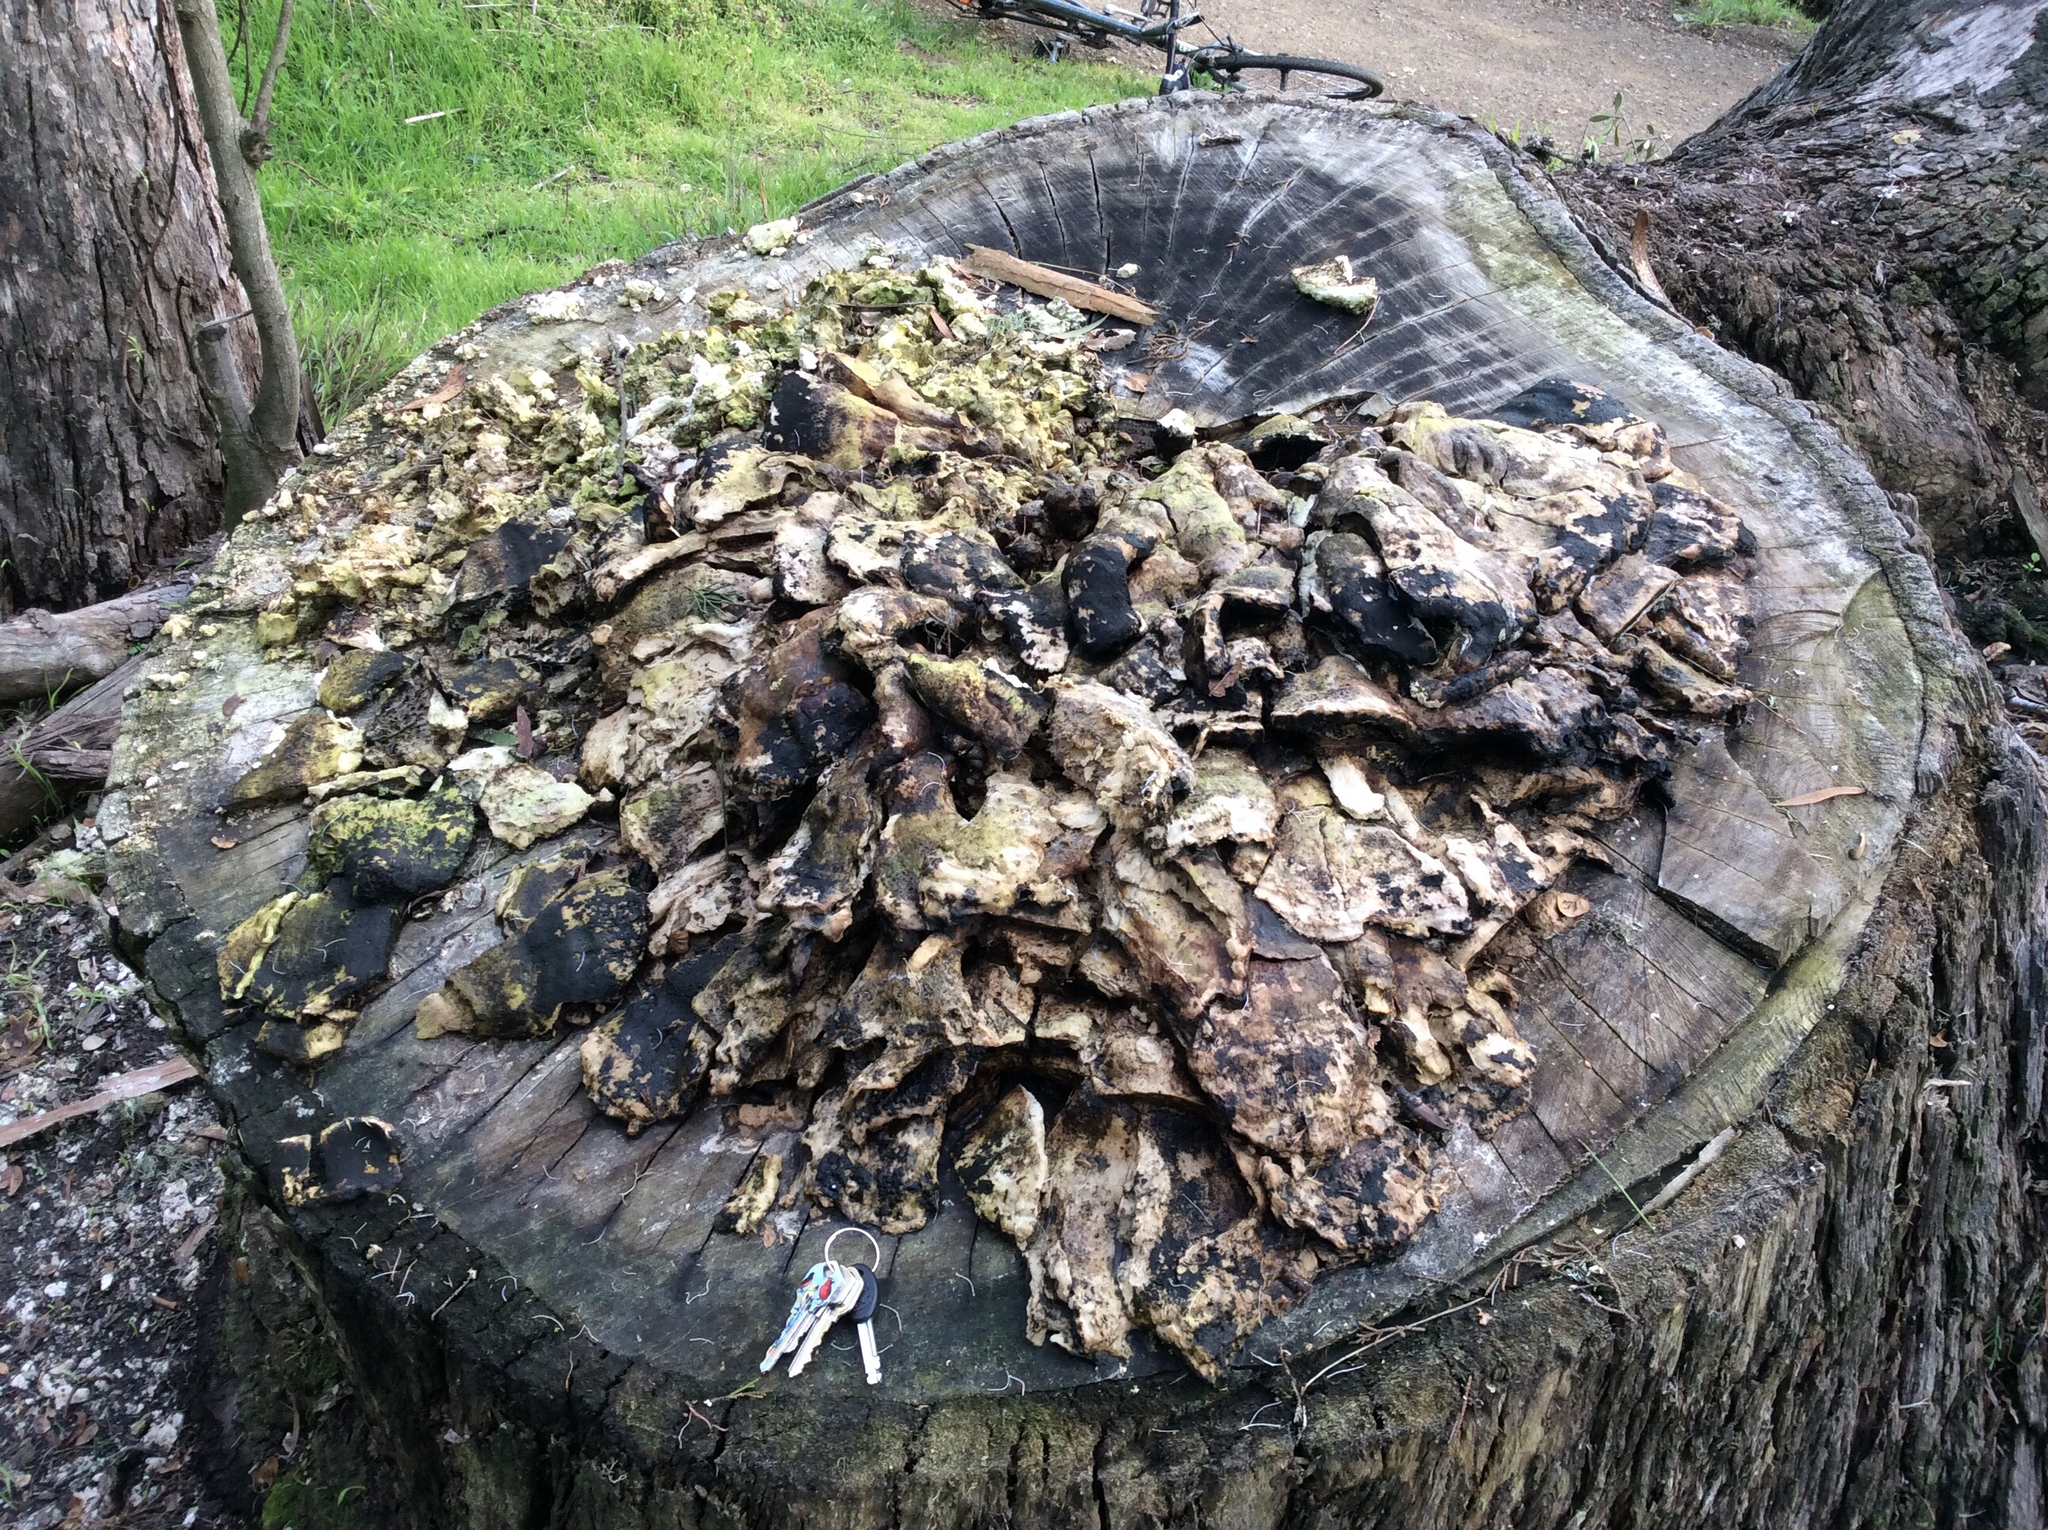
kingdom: Fungi
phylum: Basidiomycota
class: Agaricomycetes
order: Polyporales
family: Laetiporaceae
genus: Laetiporus
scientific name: Laetiporus gilbertsonii
